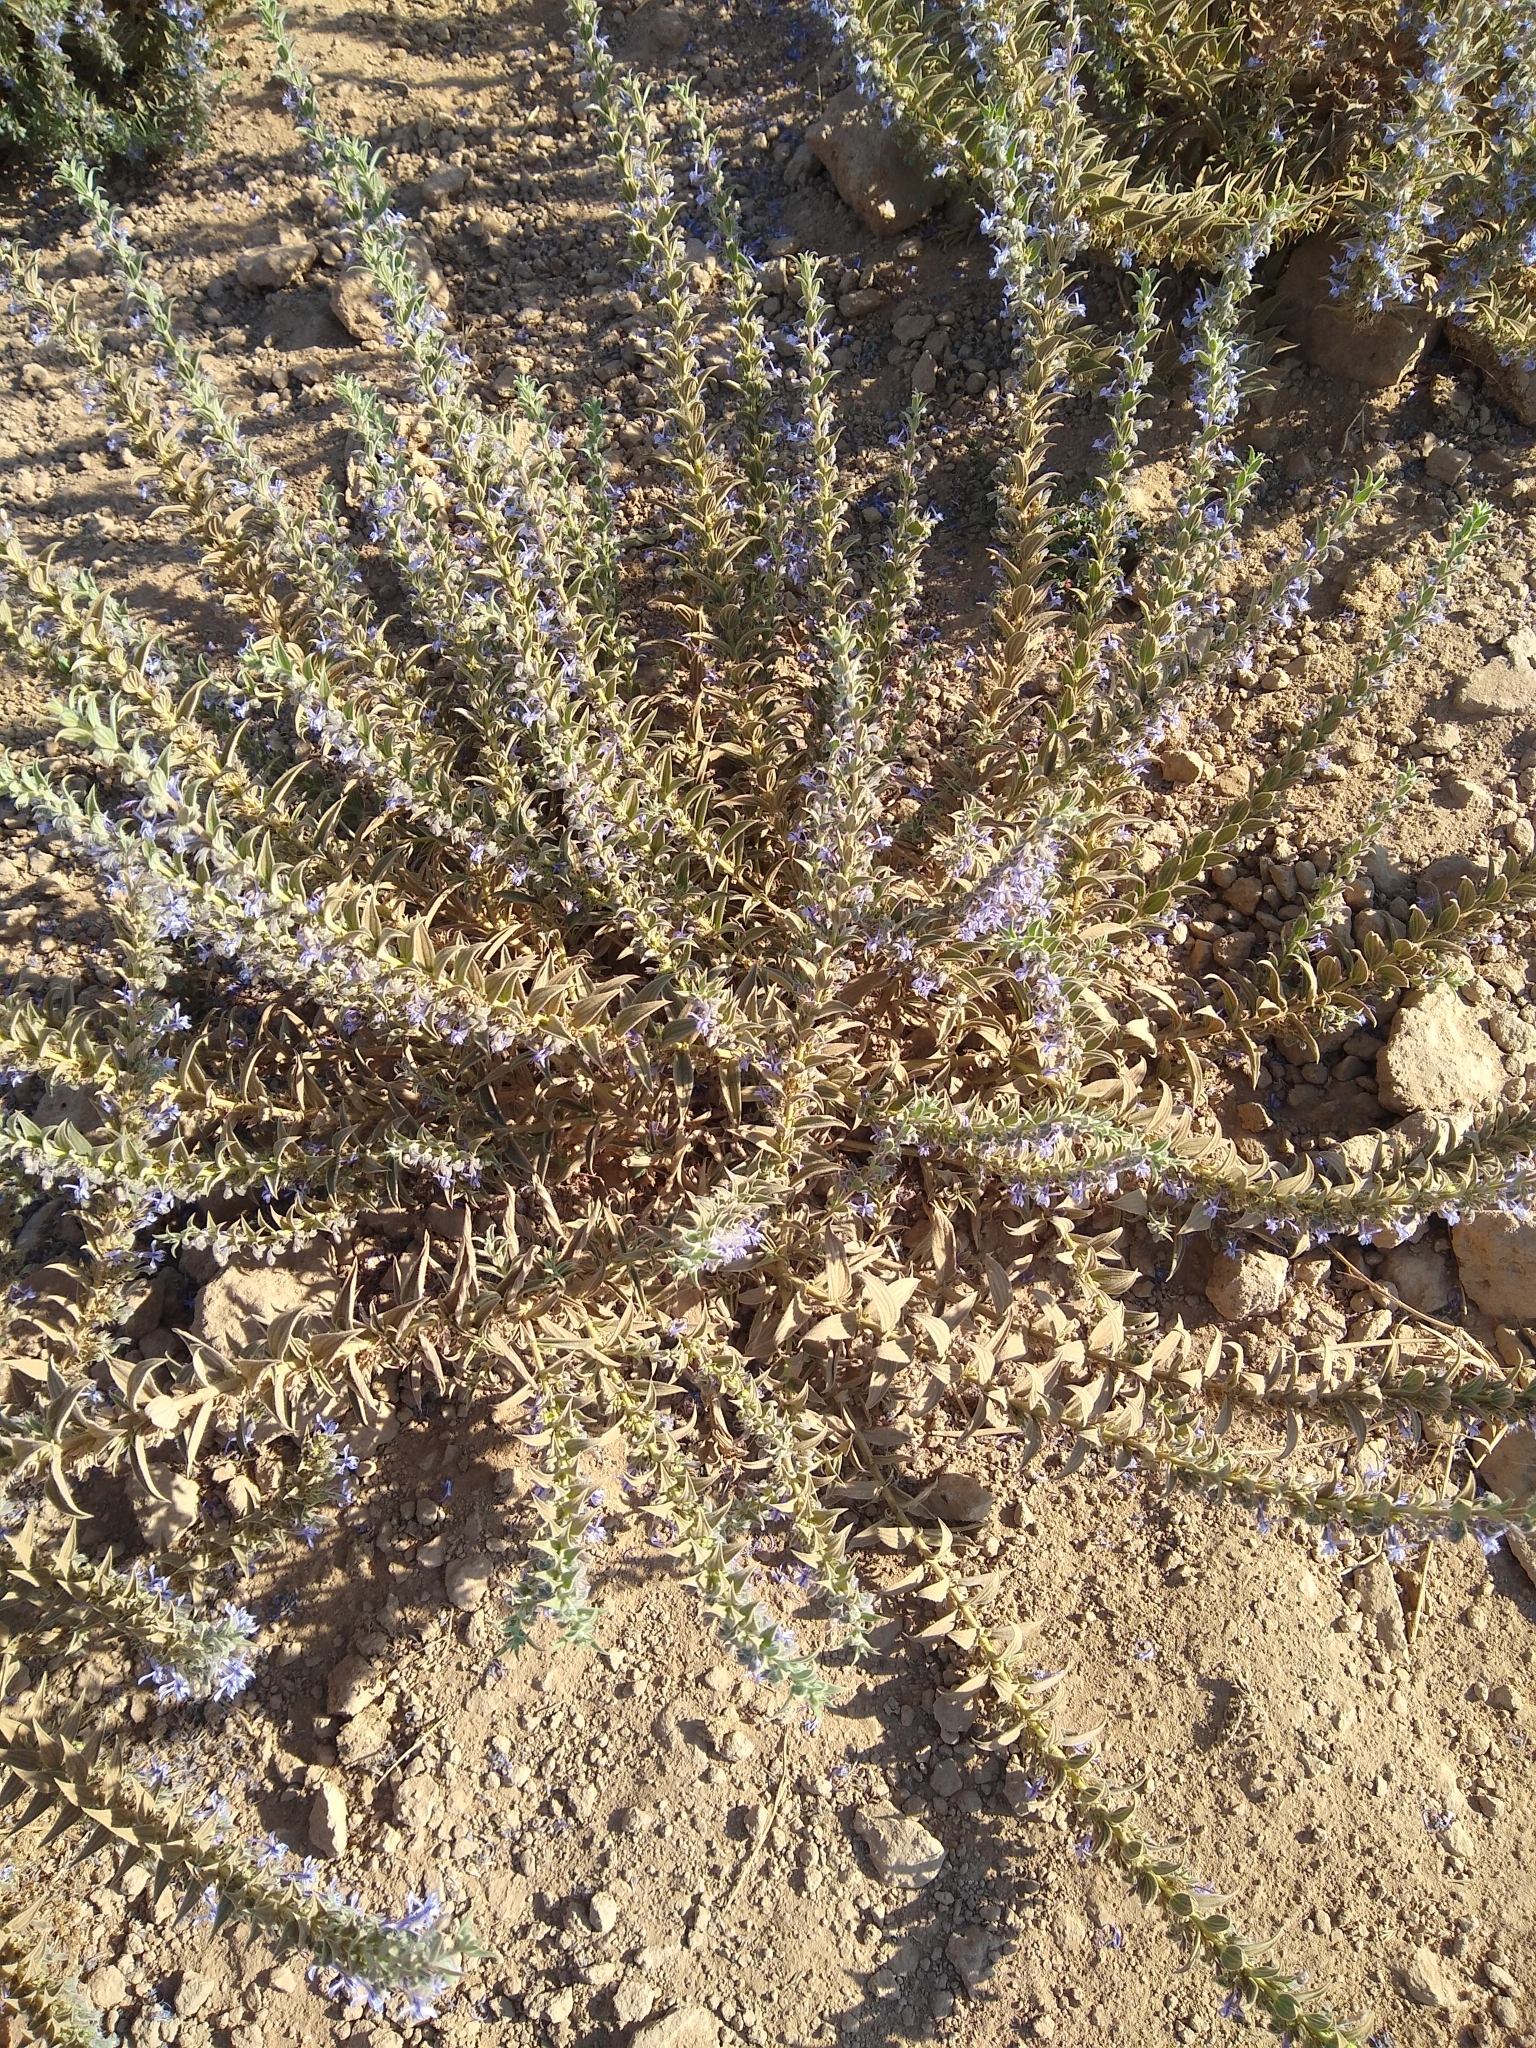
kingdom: Plantae
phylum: Tracheophyta
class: Magnoliopsida
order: Lamiales
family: Lamiaceae
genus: Trichostema
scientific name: Trichostema lanceolatum
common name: Vinegar-weed
